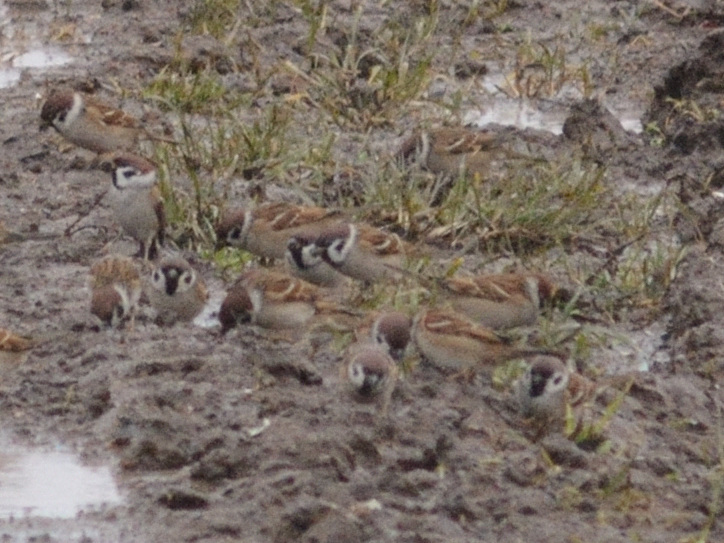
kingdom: Animalia
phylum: Chordata
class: Aves
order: Passeriformes
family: Passeridae
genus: Passer
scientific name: Passer montanus
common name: Eurasian tree sparrow
